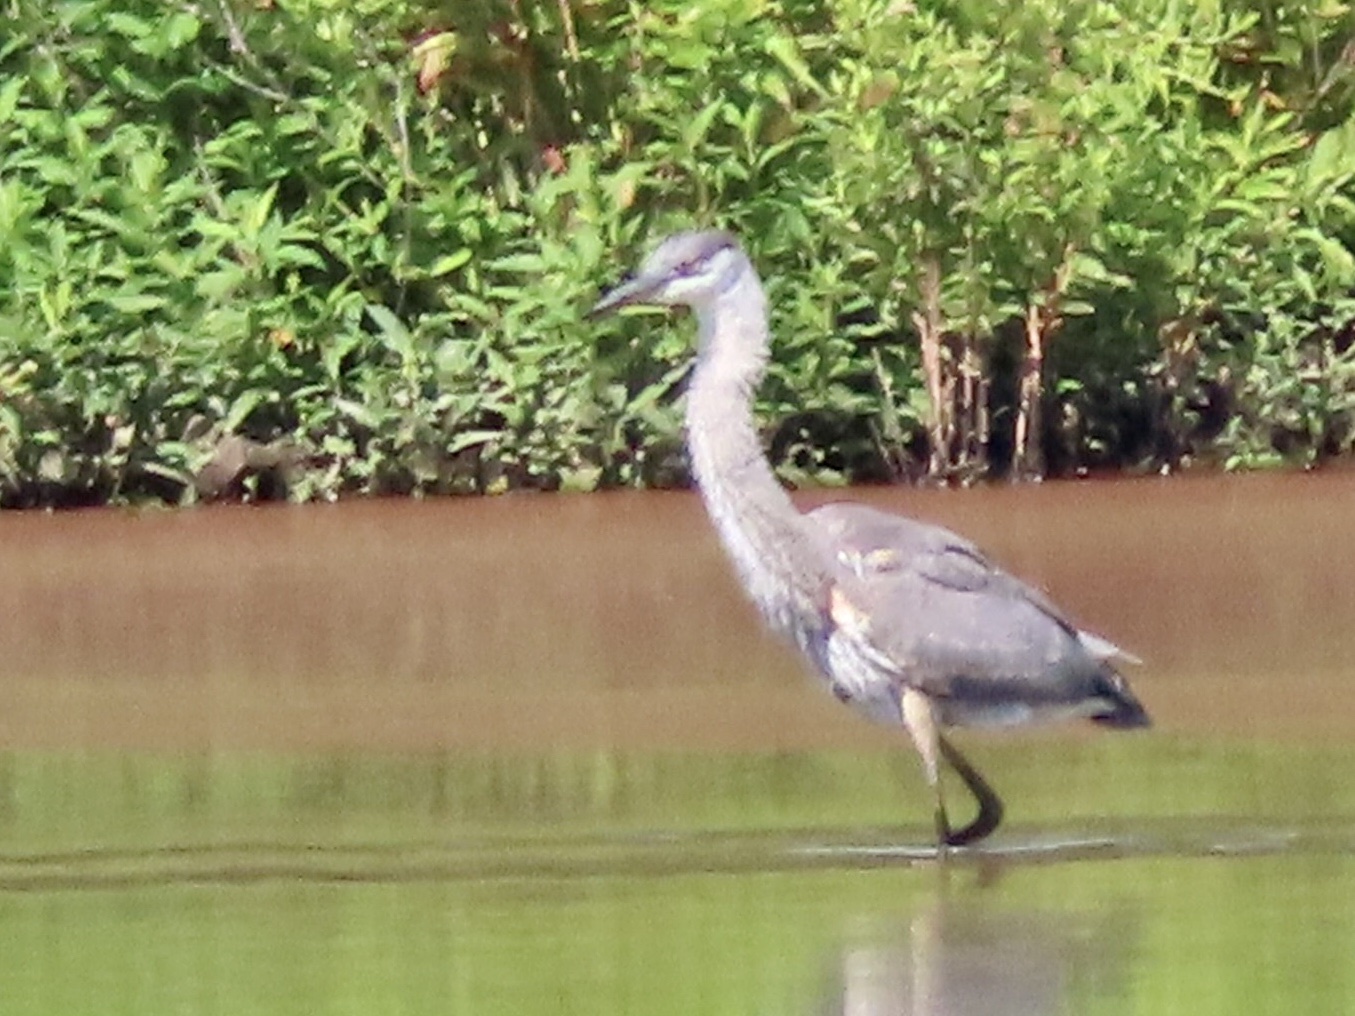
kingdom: Animalia
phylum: Chordata
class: Aves
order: Pelecaniformes
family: Ardeidae
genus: Ardea
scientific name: Ardea herodias
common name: Great blue heron
